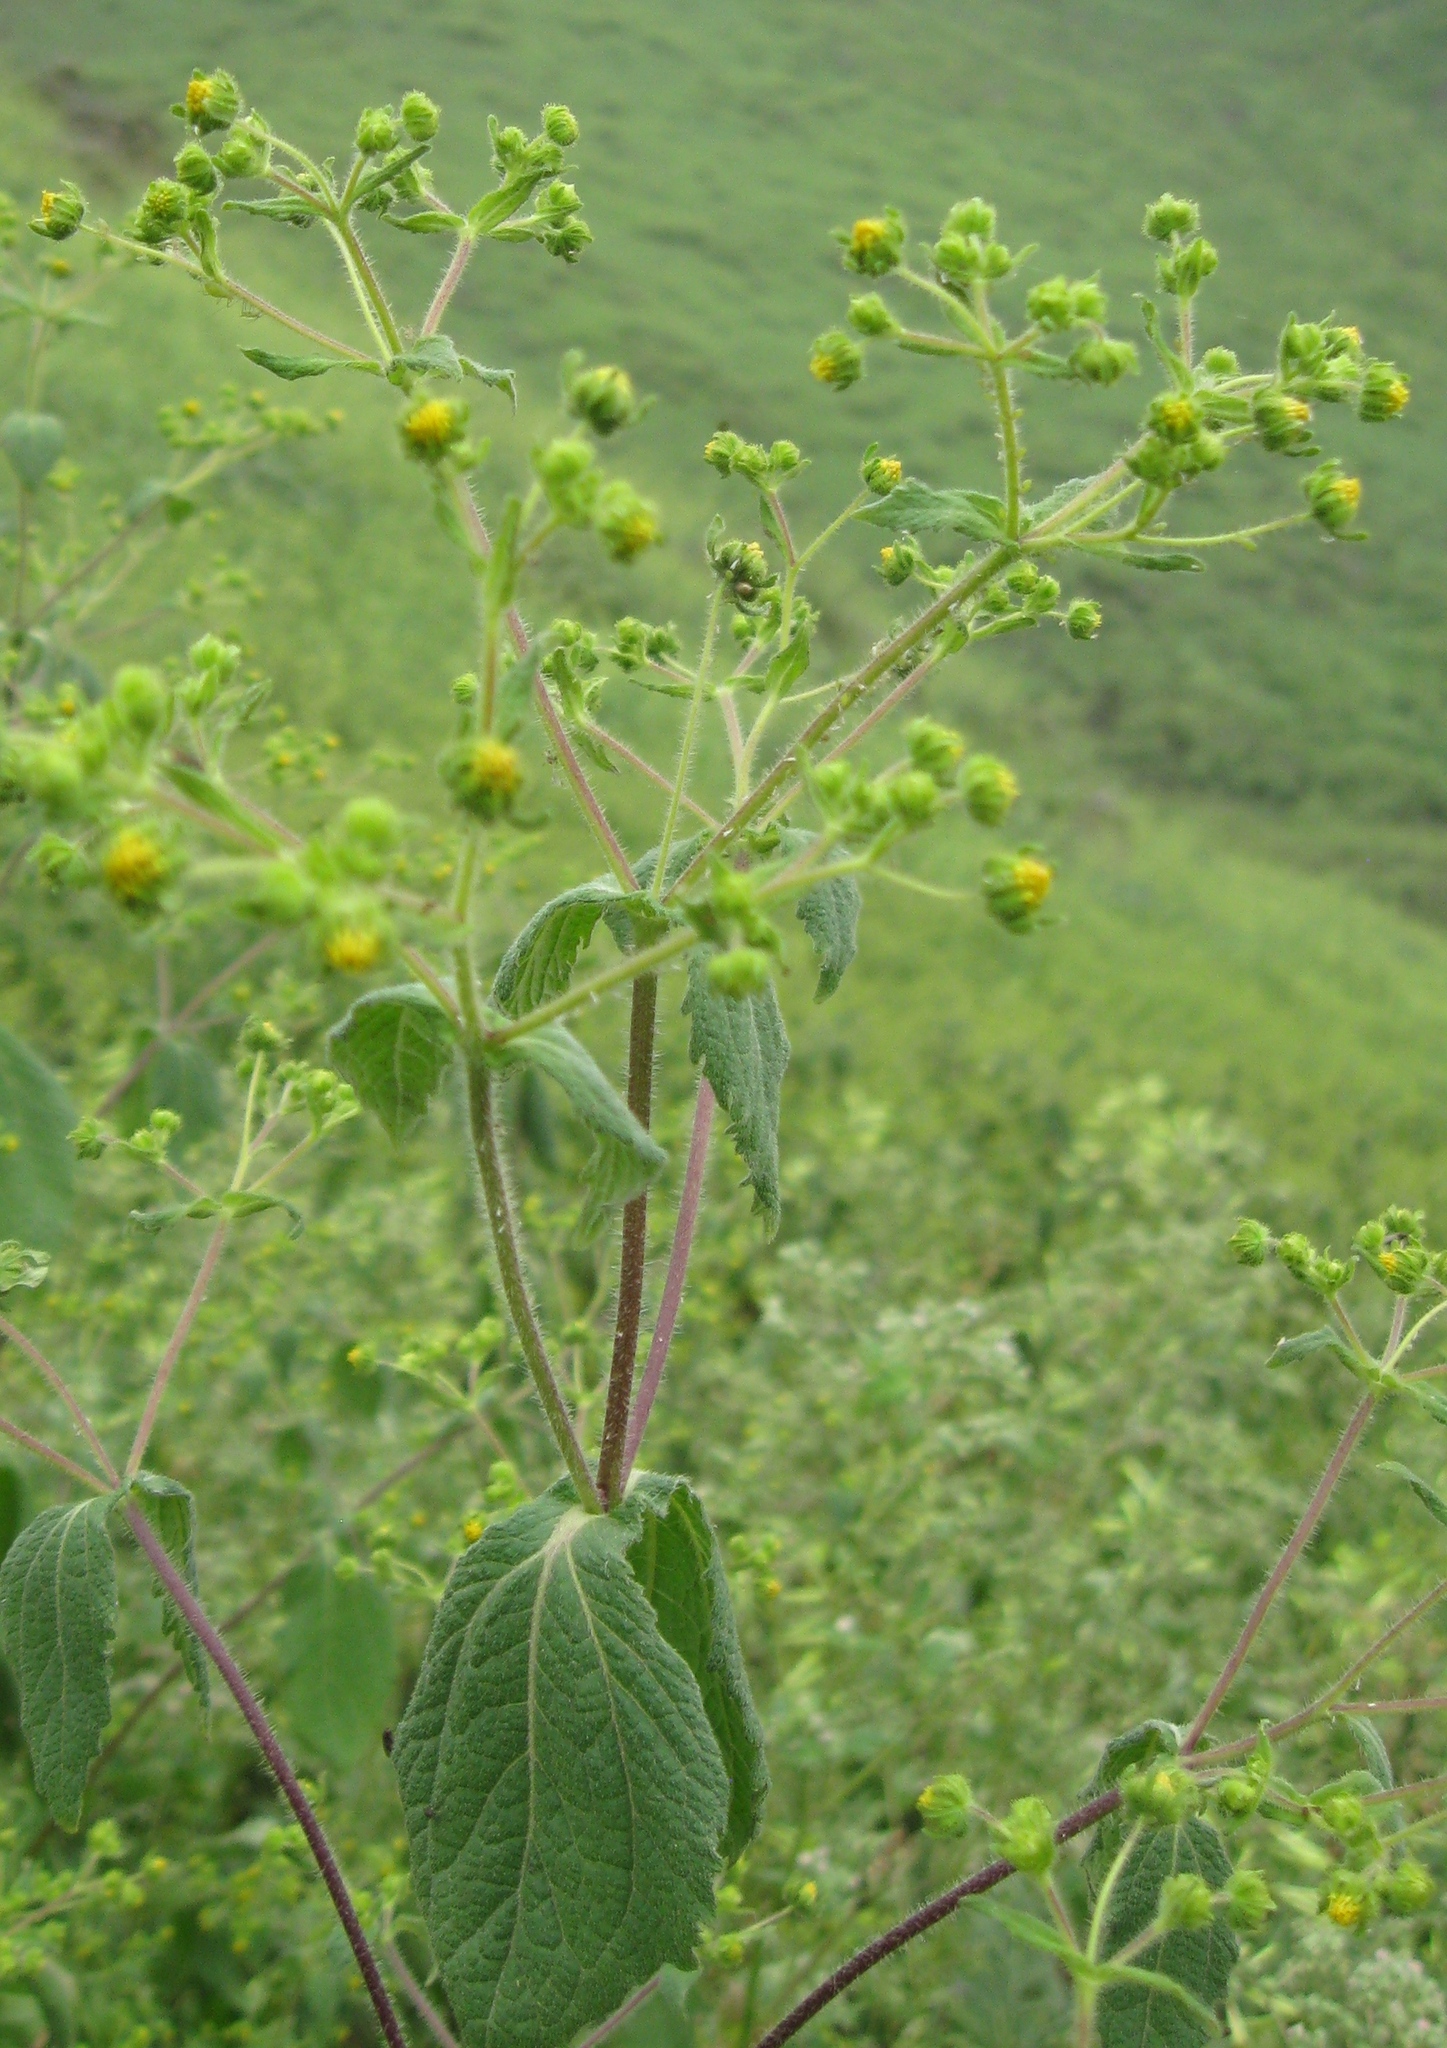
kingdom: Plantae
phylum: Tracheophyta
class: Magnoliopsida
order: Asterales
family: Asteraceae
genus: Sigesbeckia
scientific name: Sigesbeckia flosculosa
